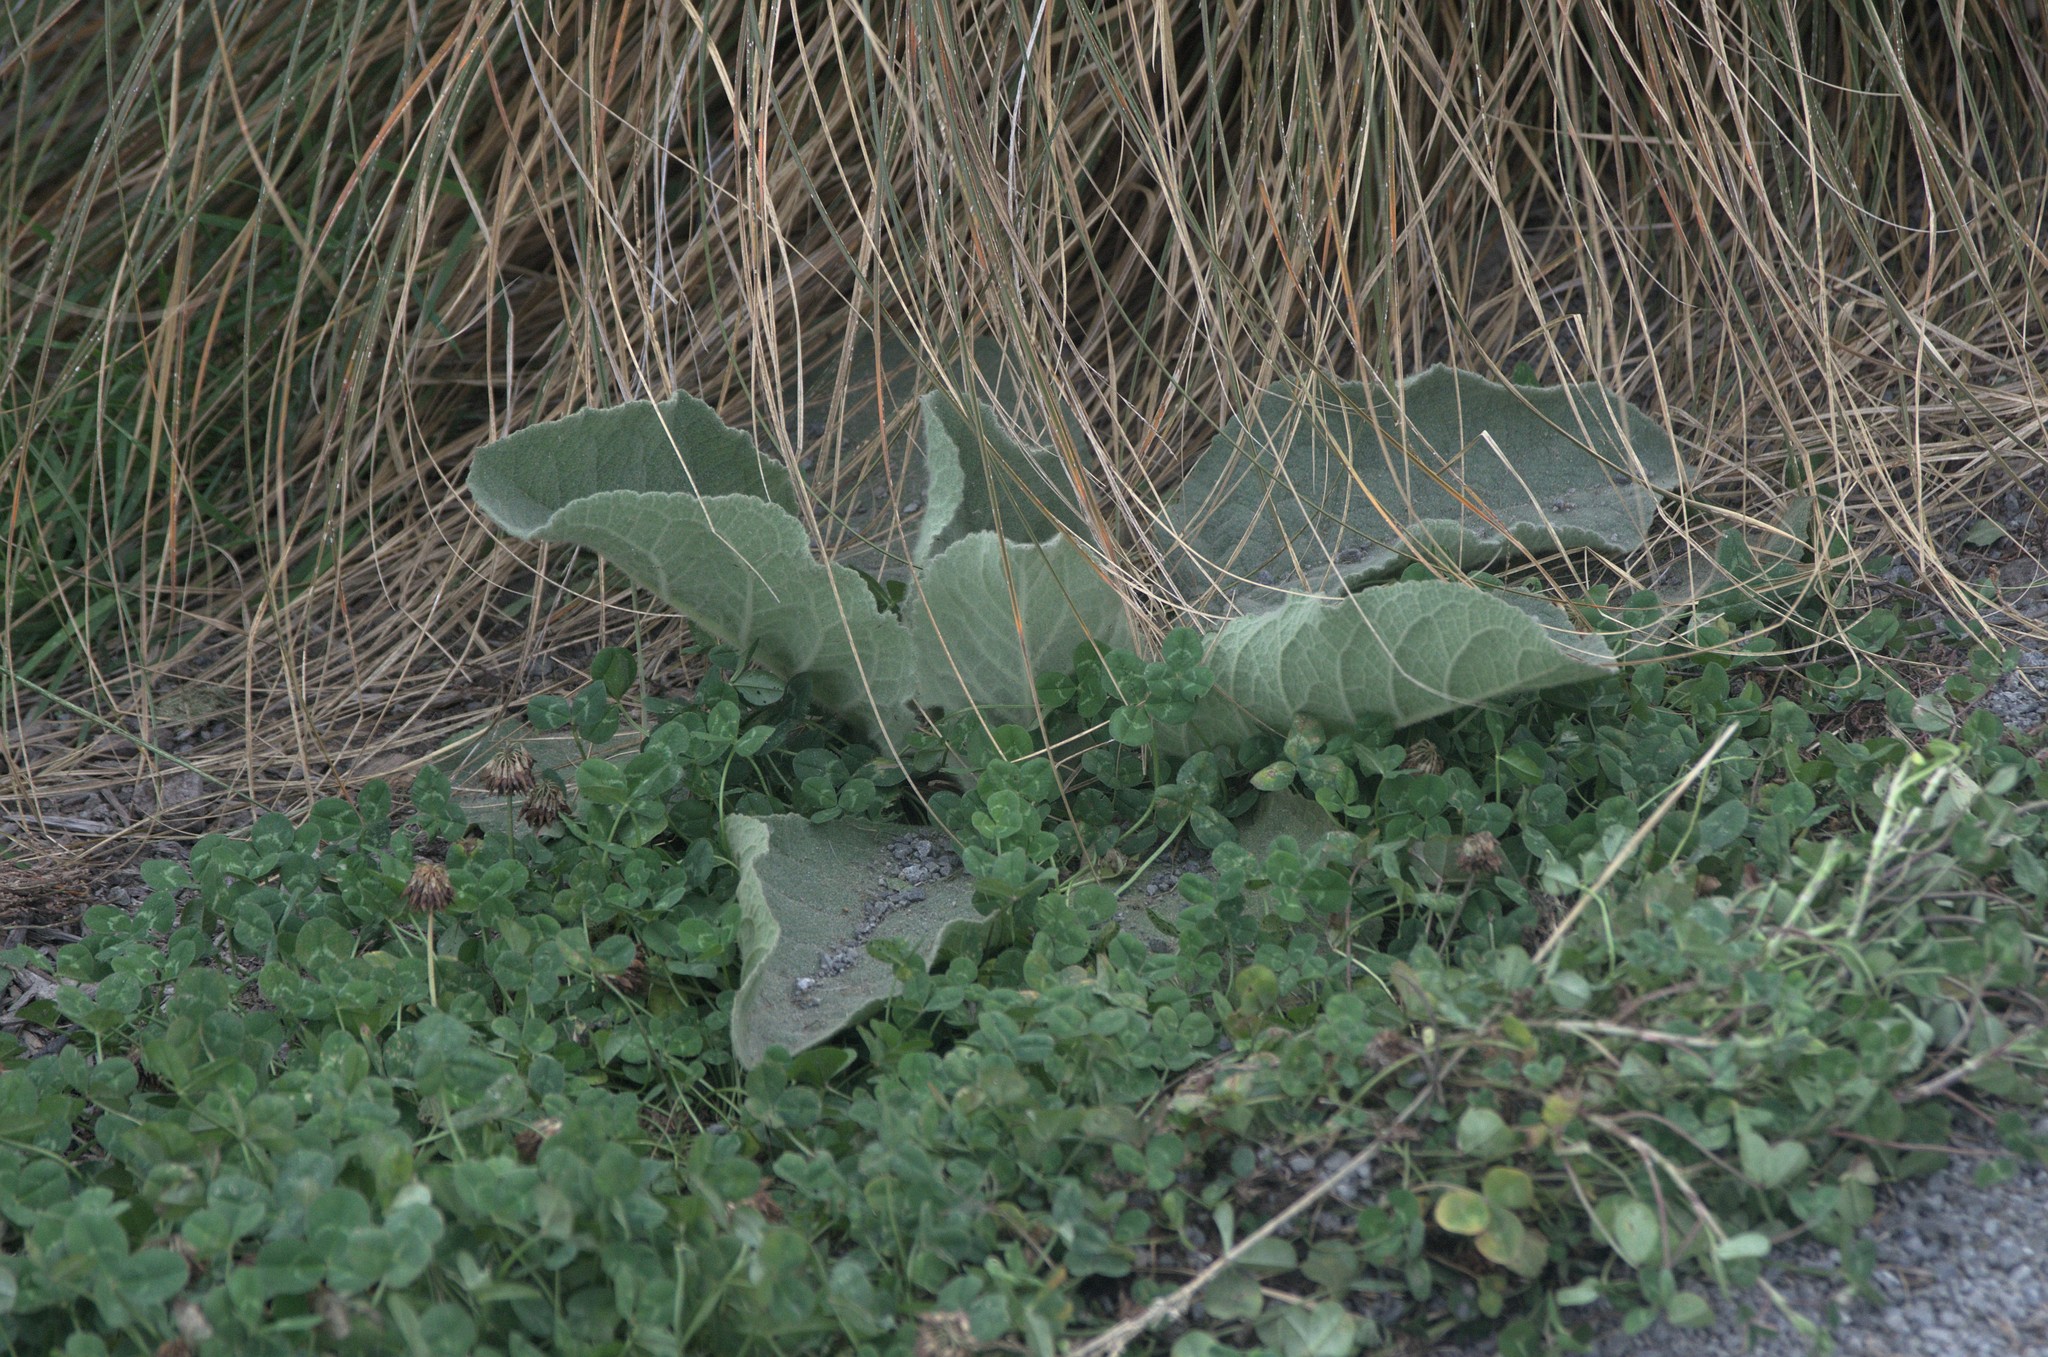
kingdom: Plantae
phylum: Tracheophyta
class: Magnoliopsida
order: Lamiales
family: Scrophulariaceae
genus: Verbascum
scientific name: Verbascum thapsus
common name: Common mullein
